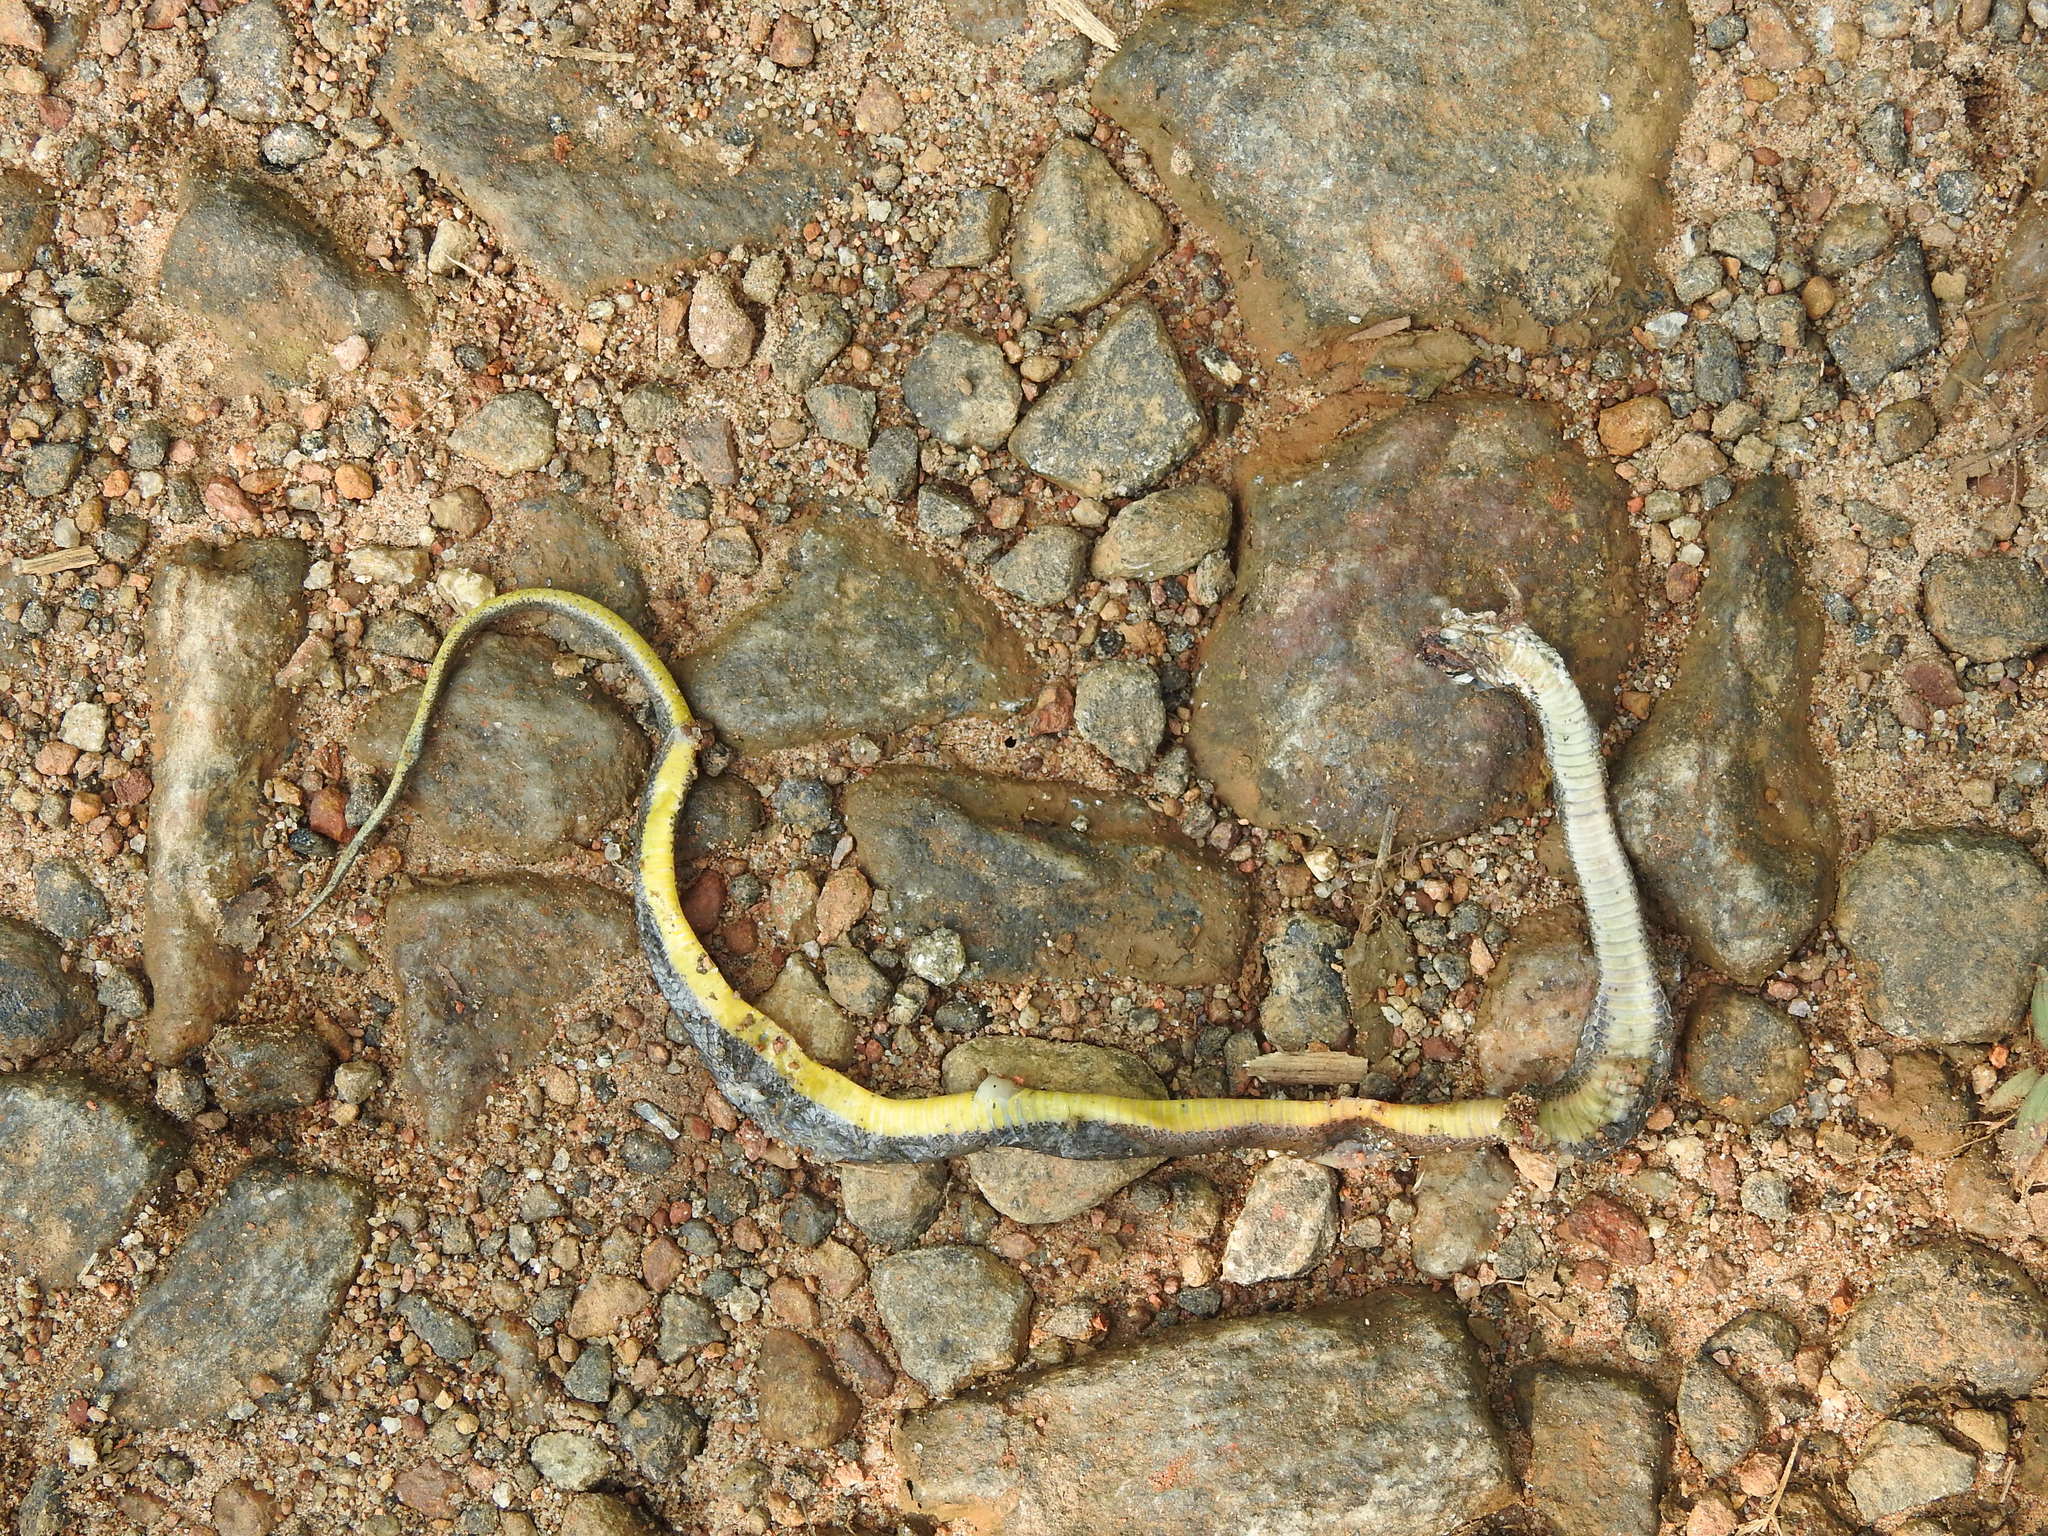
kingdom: Animalia
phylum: Chordata
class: Squamata
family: Colubridae
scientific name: Colubridae
